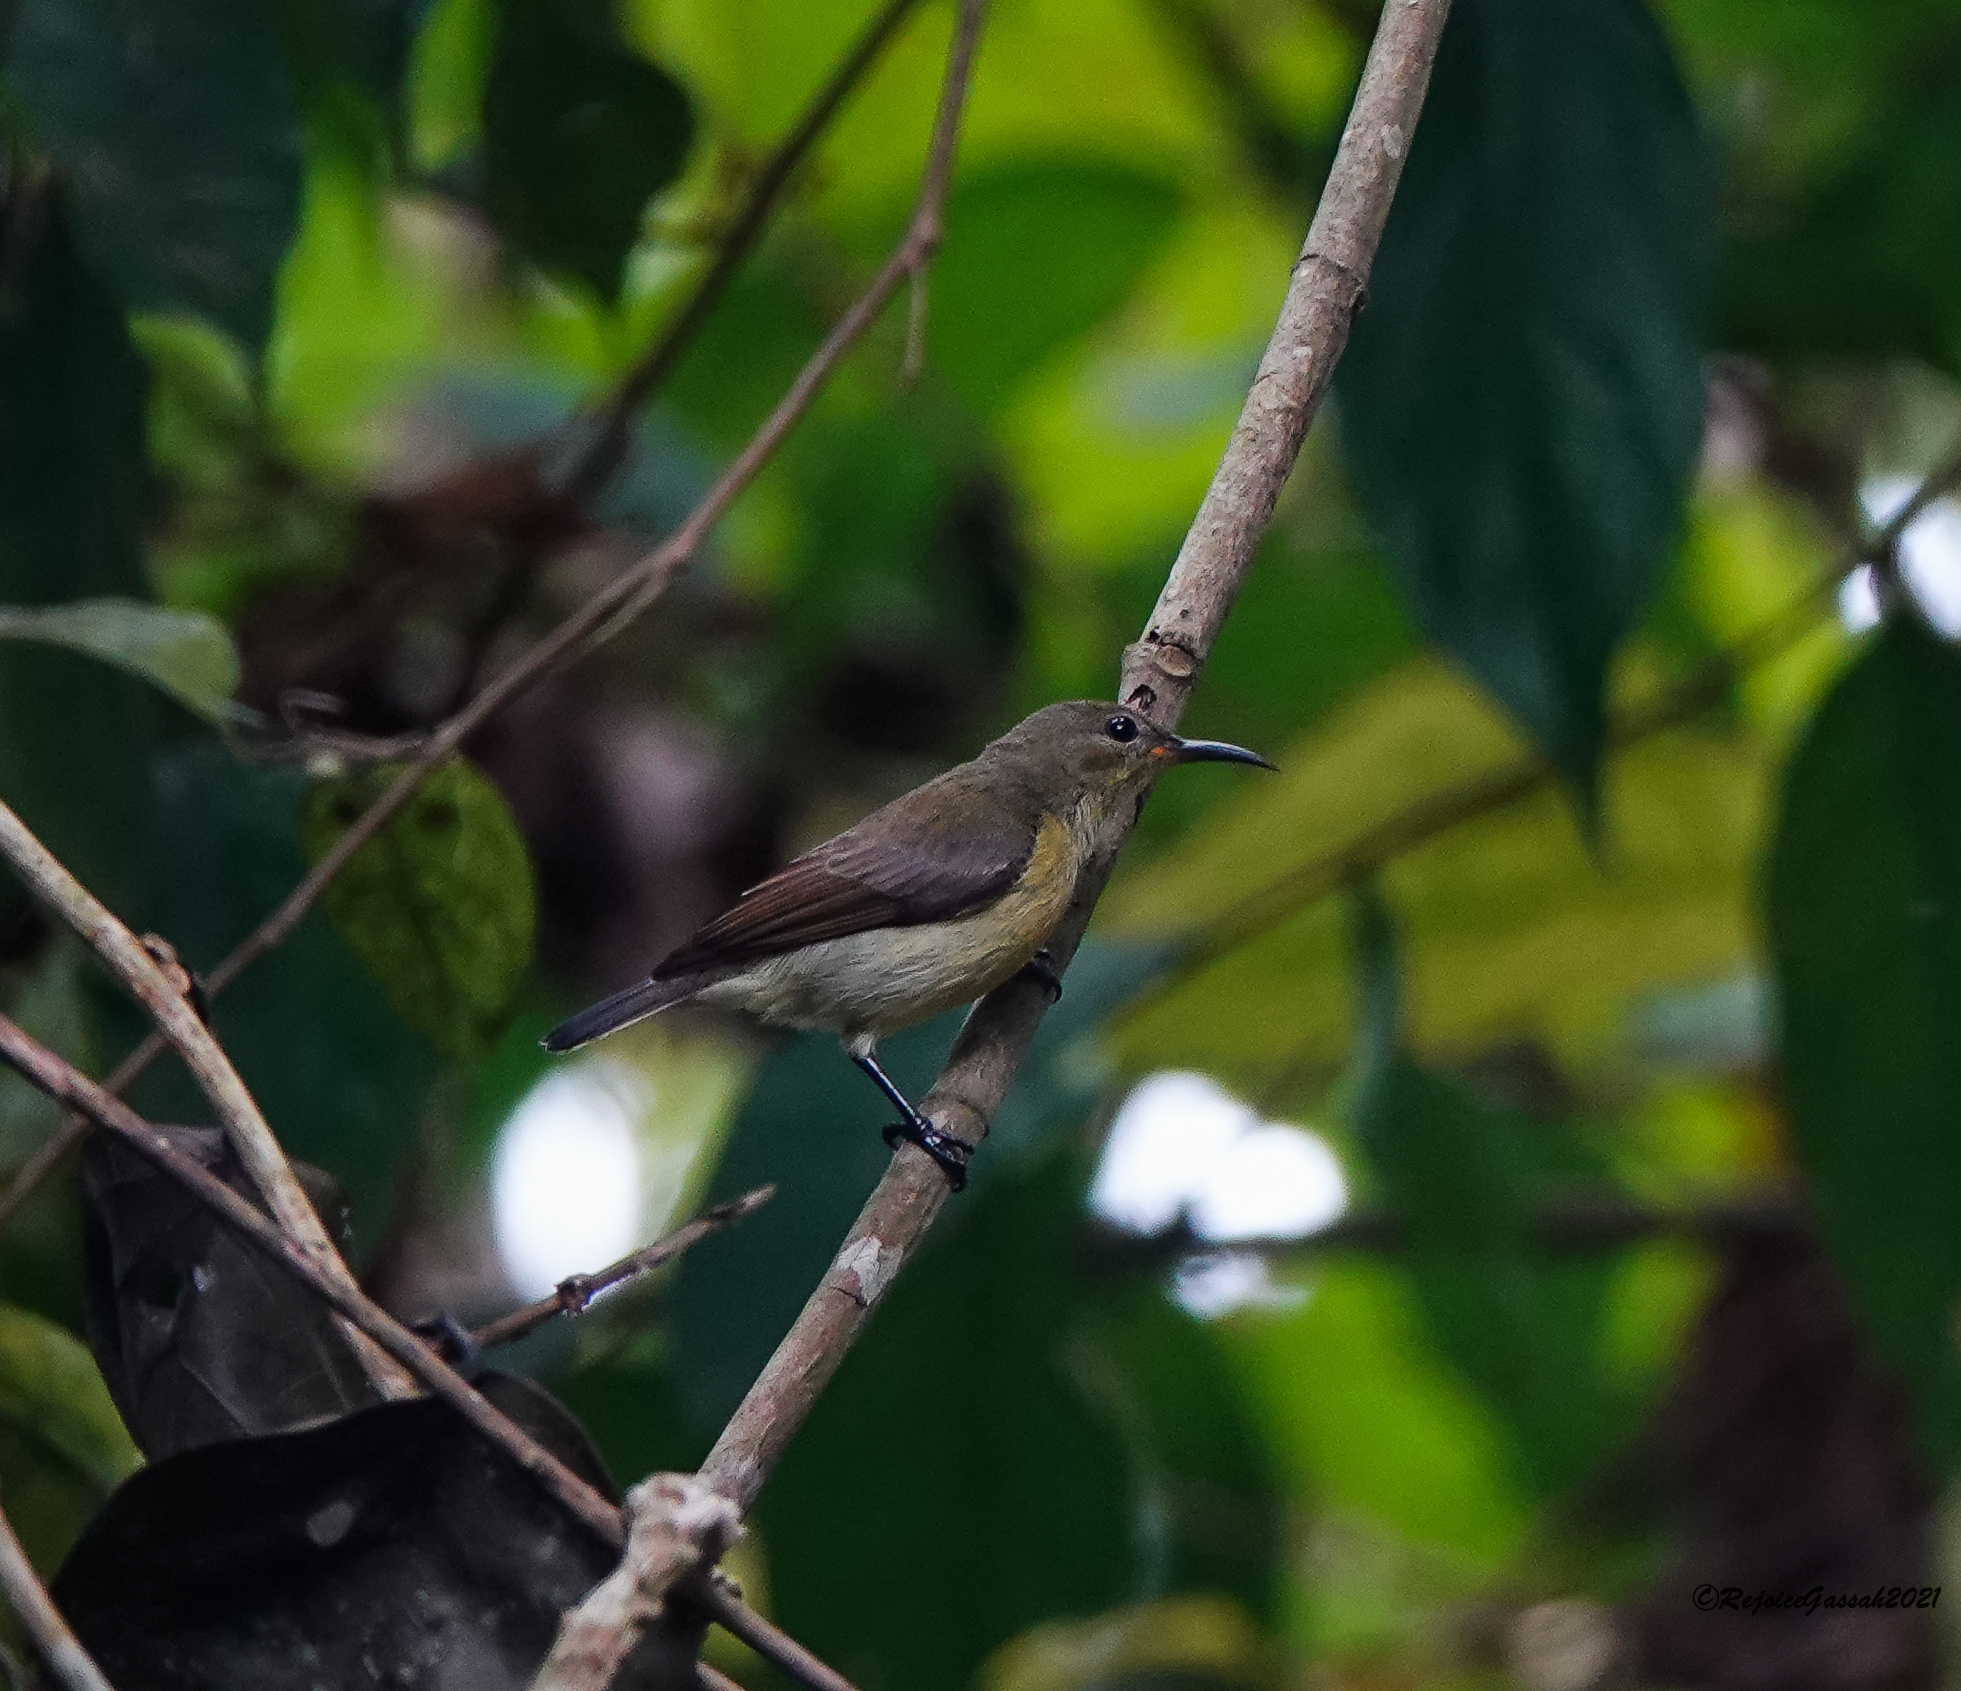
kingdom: Animalia
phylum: Chordata
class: Aves
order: Passeriformes
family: Nectariniidae
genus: Leptocoma
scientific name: Leptocoma brasiliana
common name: Van hasselt's sunbird
